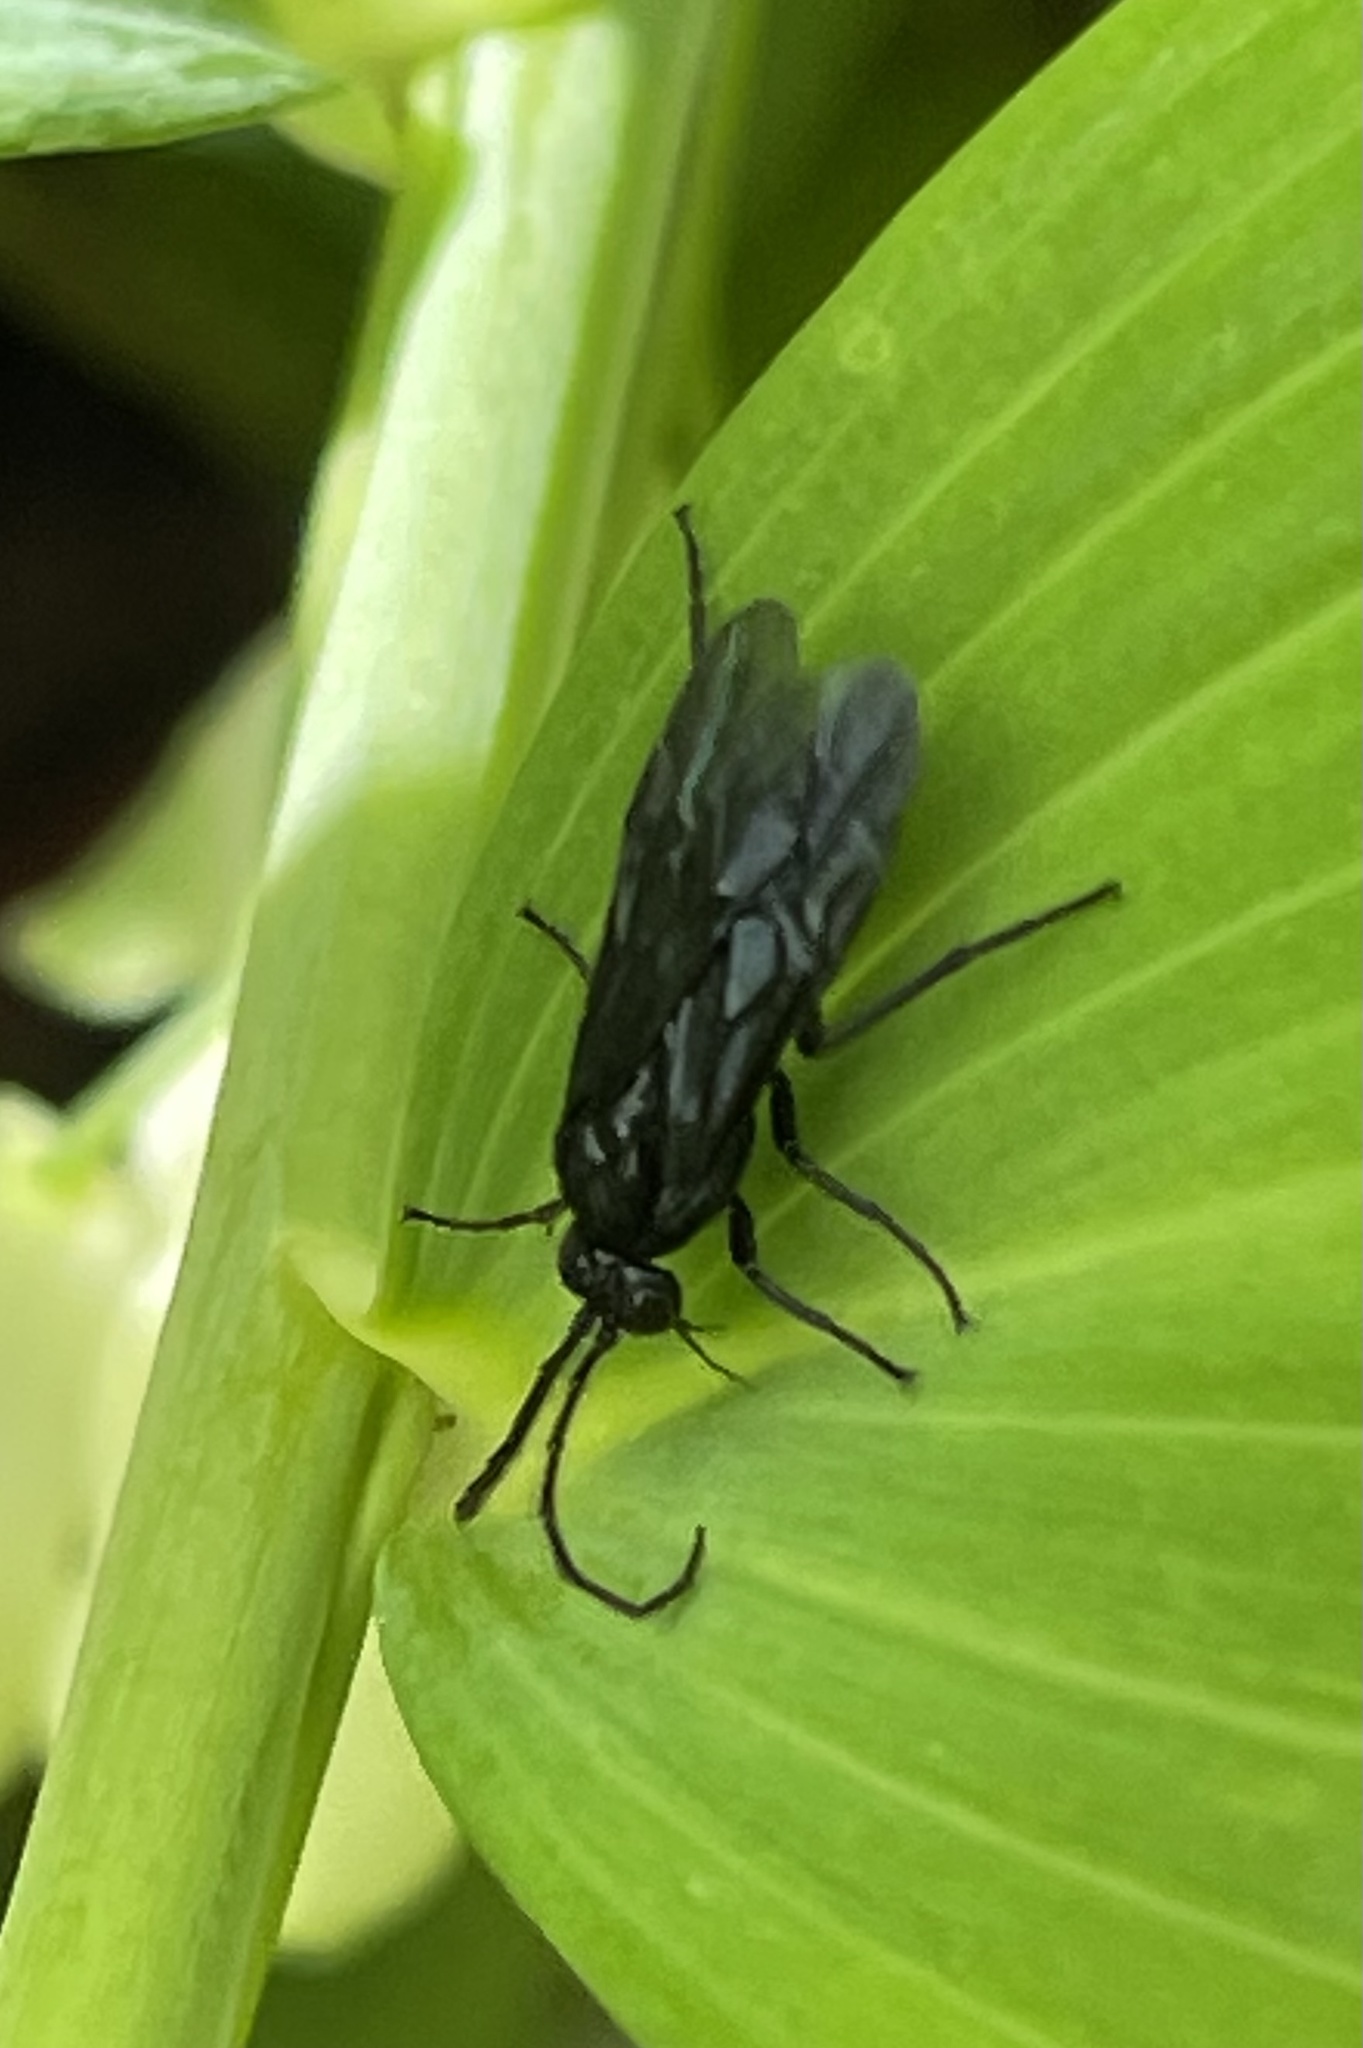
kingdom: Animalia
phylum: Arthropoda
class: Insecta
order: Hymenoptera
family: Tenthredinidae
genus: Phymatocera
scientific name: Phymatocera aterrima
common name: Solomon's-seal sawfly
